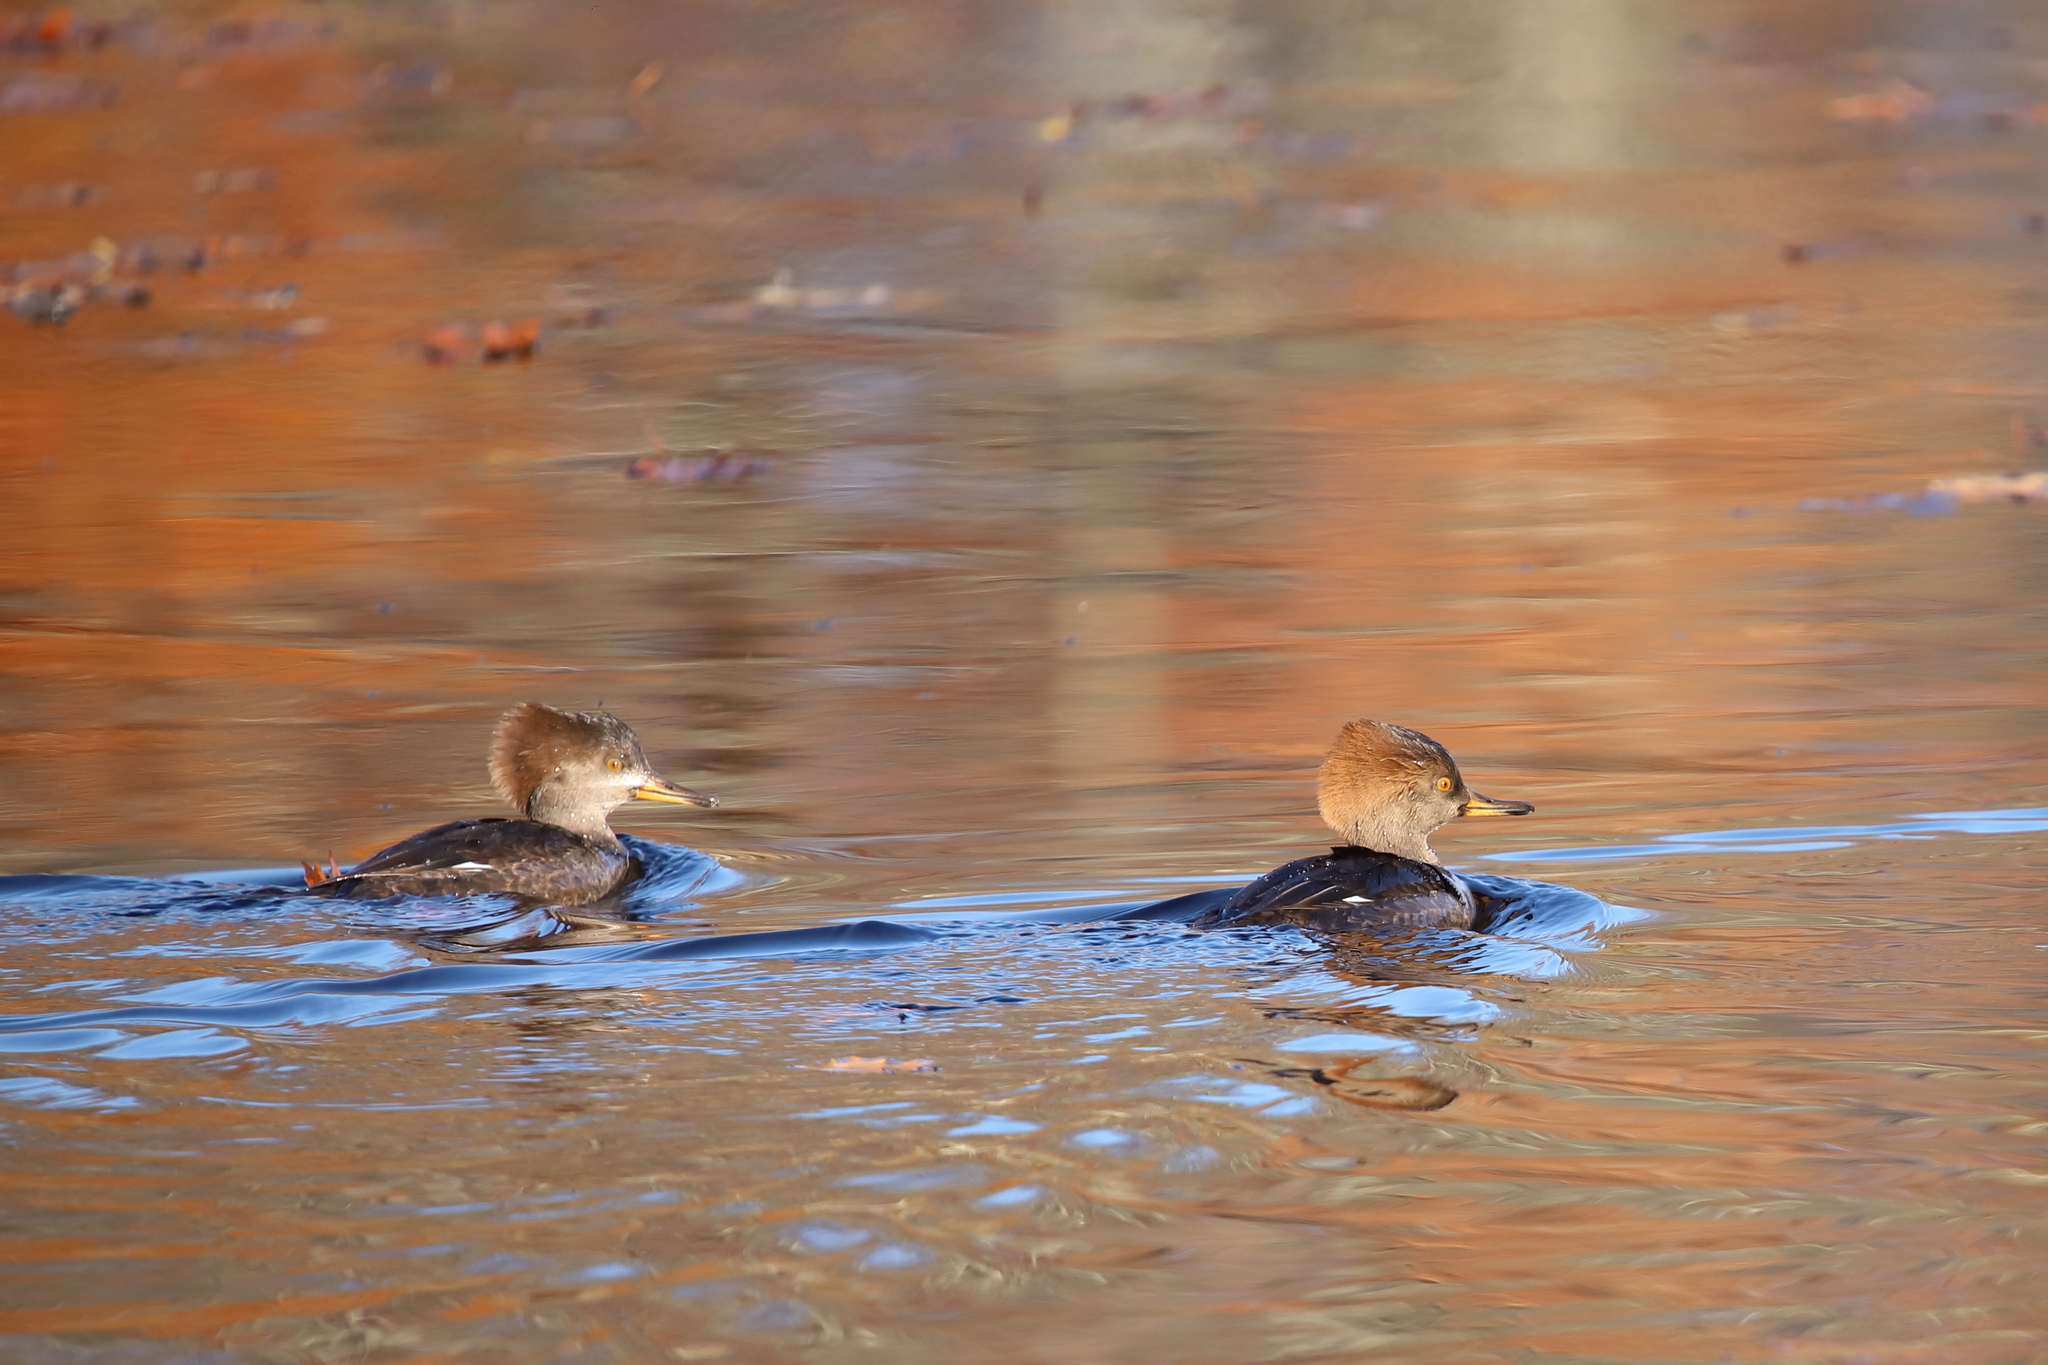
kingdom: Animalia
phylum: Chordata
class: Aves
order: Anseriformes
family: Anatidae
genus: Lophodytes
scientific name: Lophodytes cucullatus
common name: Hooded merganser
